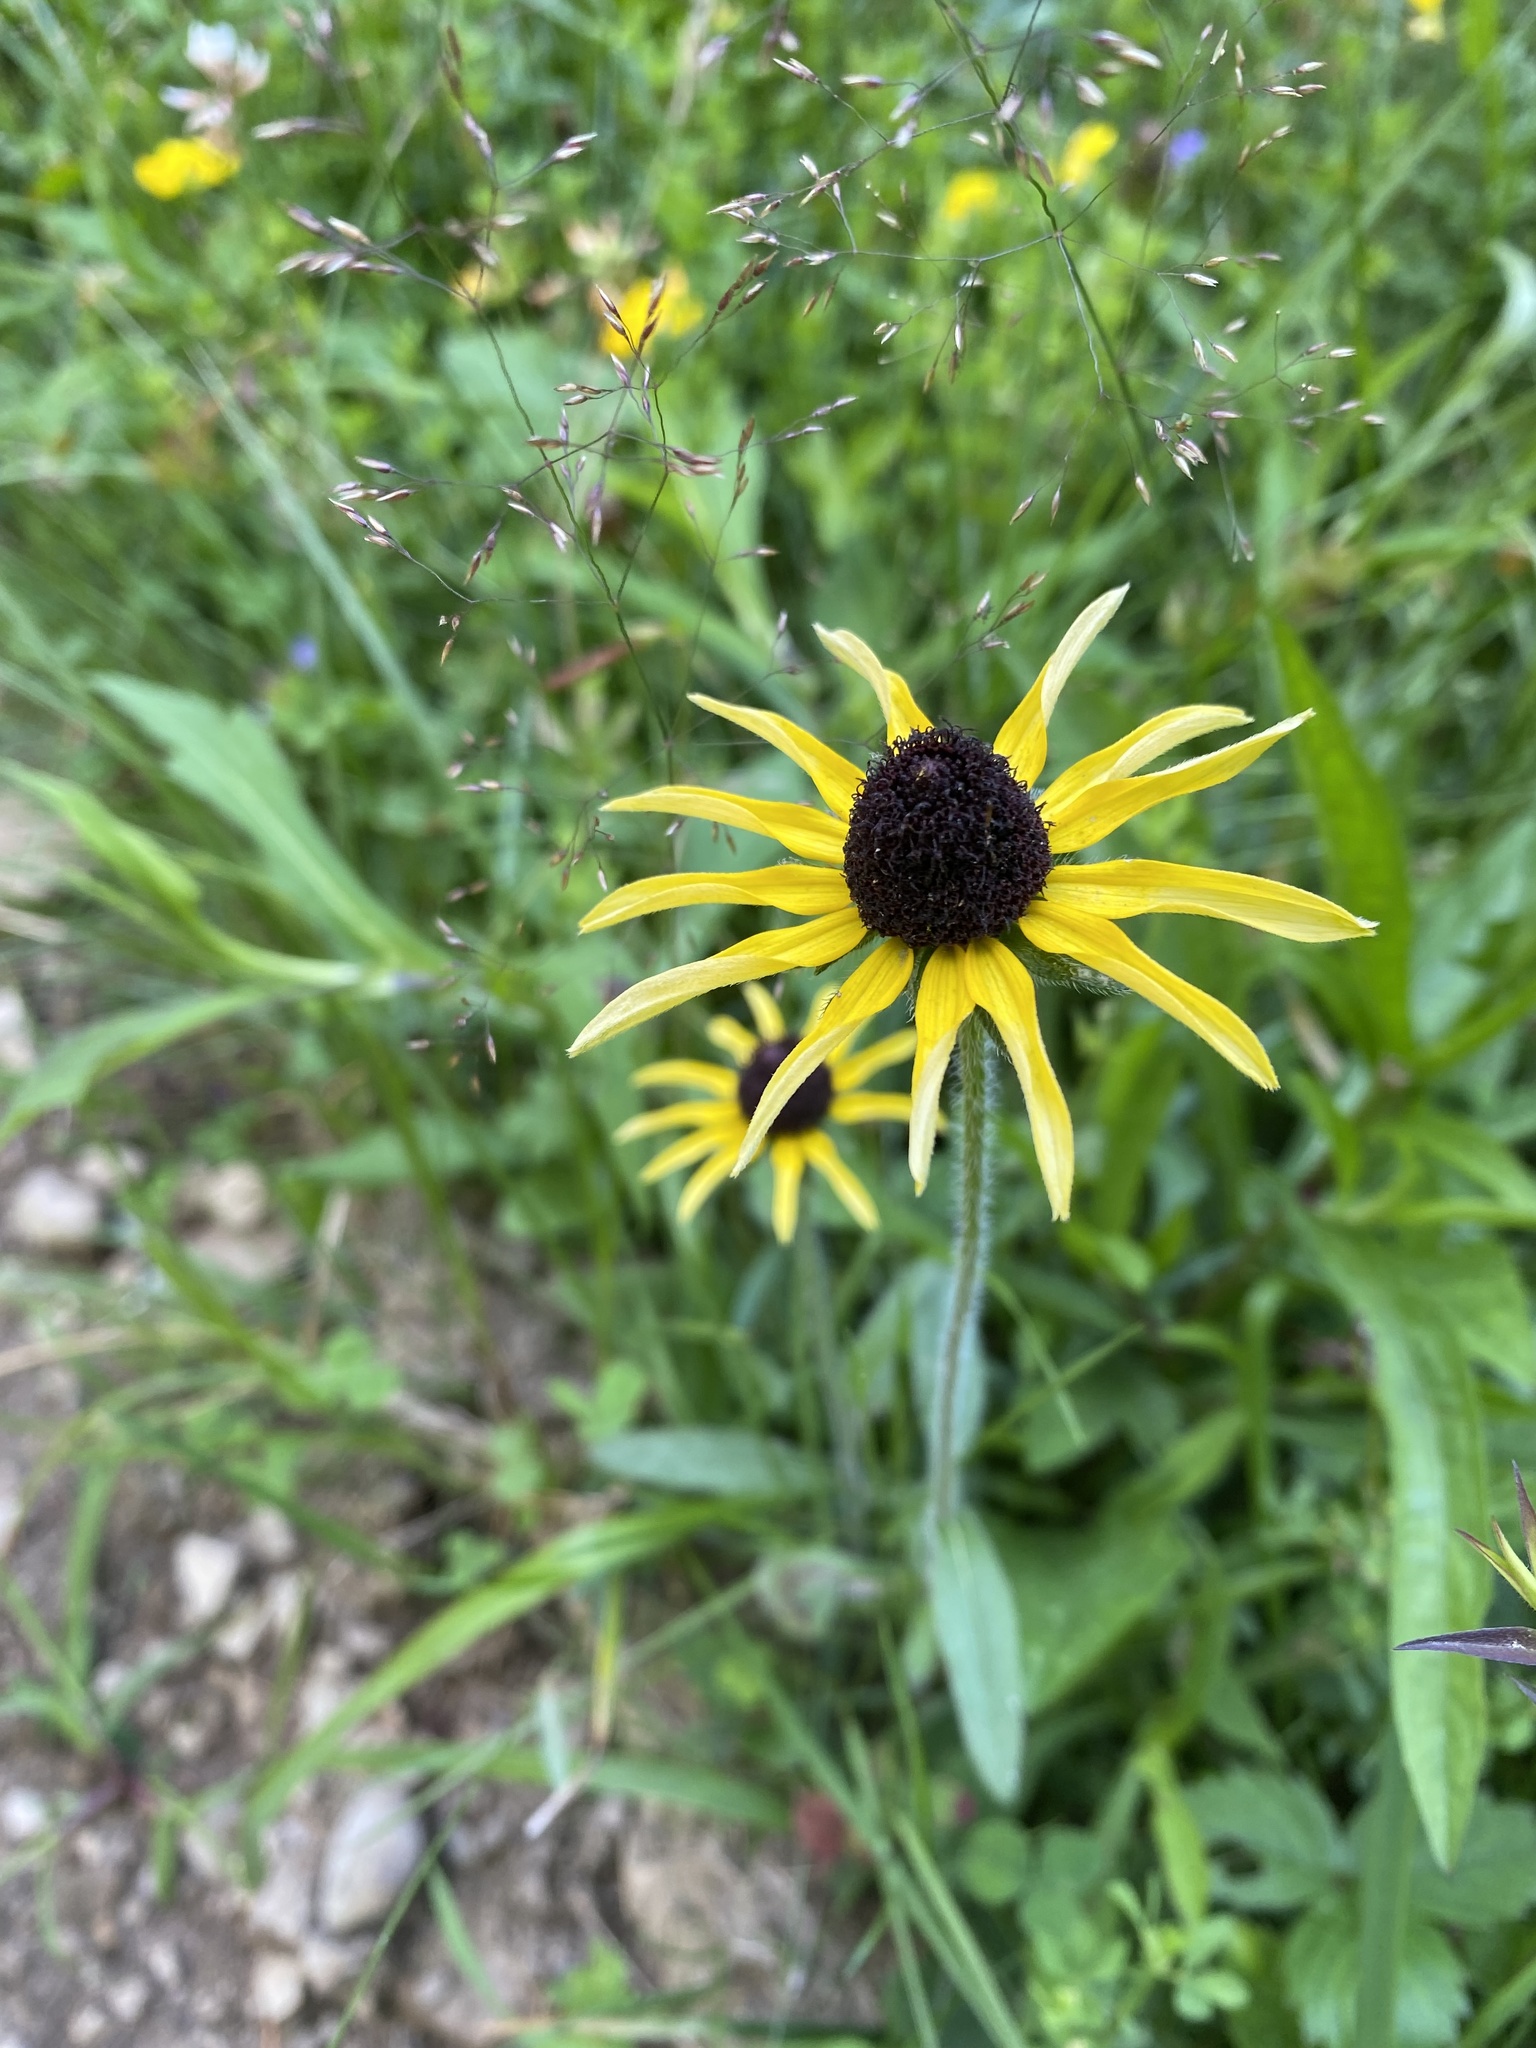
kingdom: Plantae
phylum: Tracheophyta
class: Magnoliopsida
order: Asterales
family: Asteraceae
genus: Rudbeckia
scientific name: Rudbeckia hirta
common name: Black-eyed-susan
